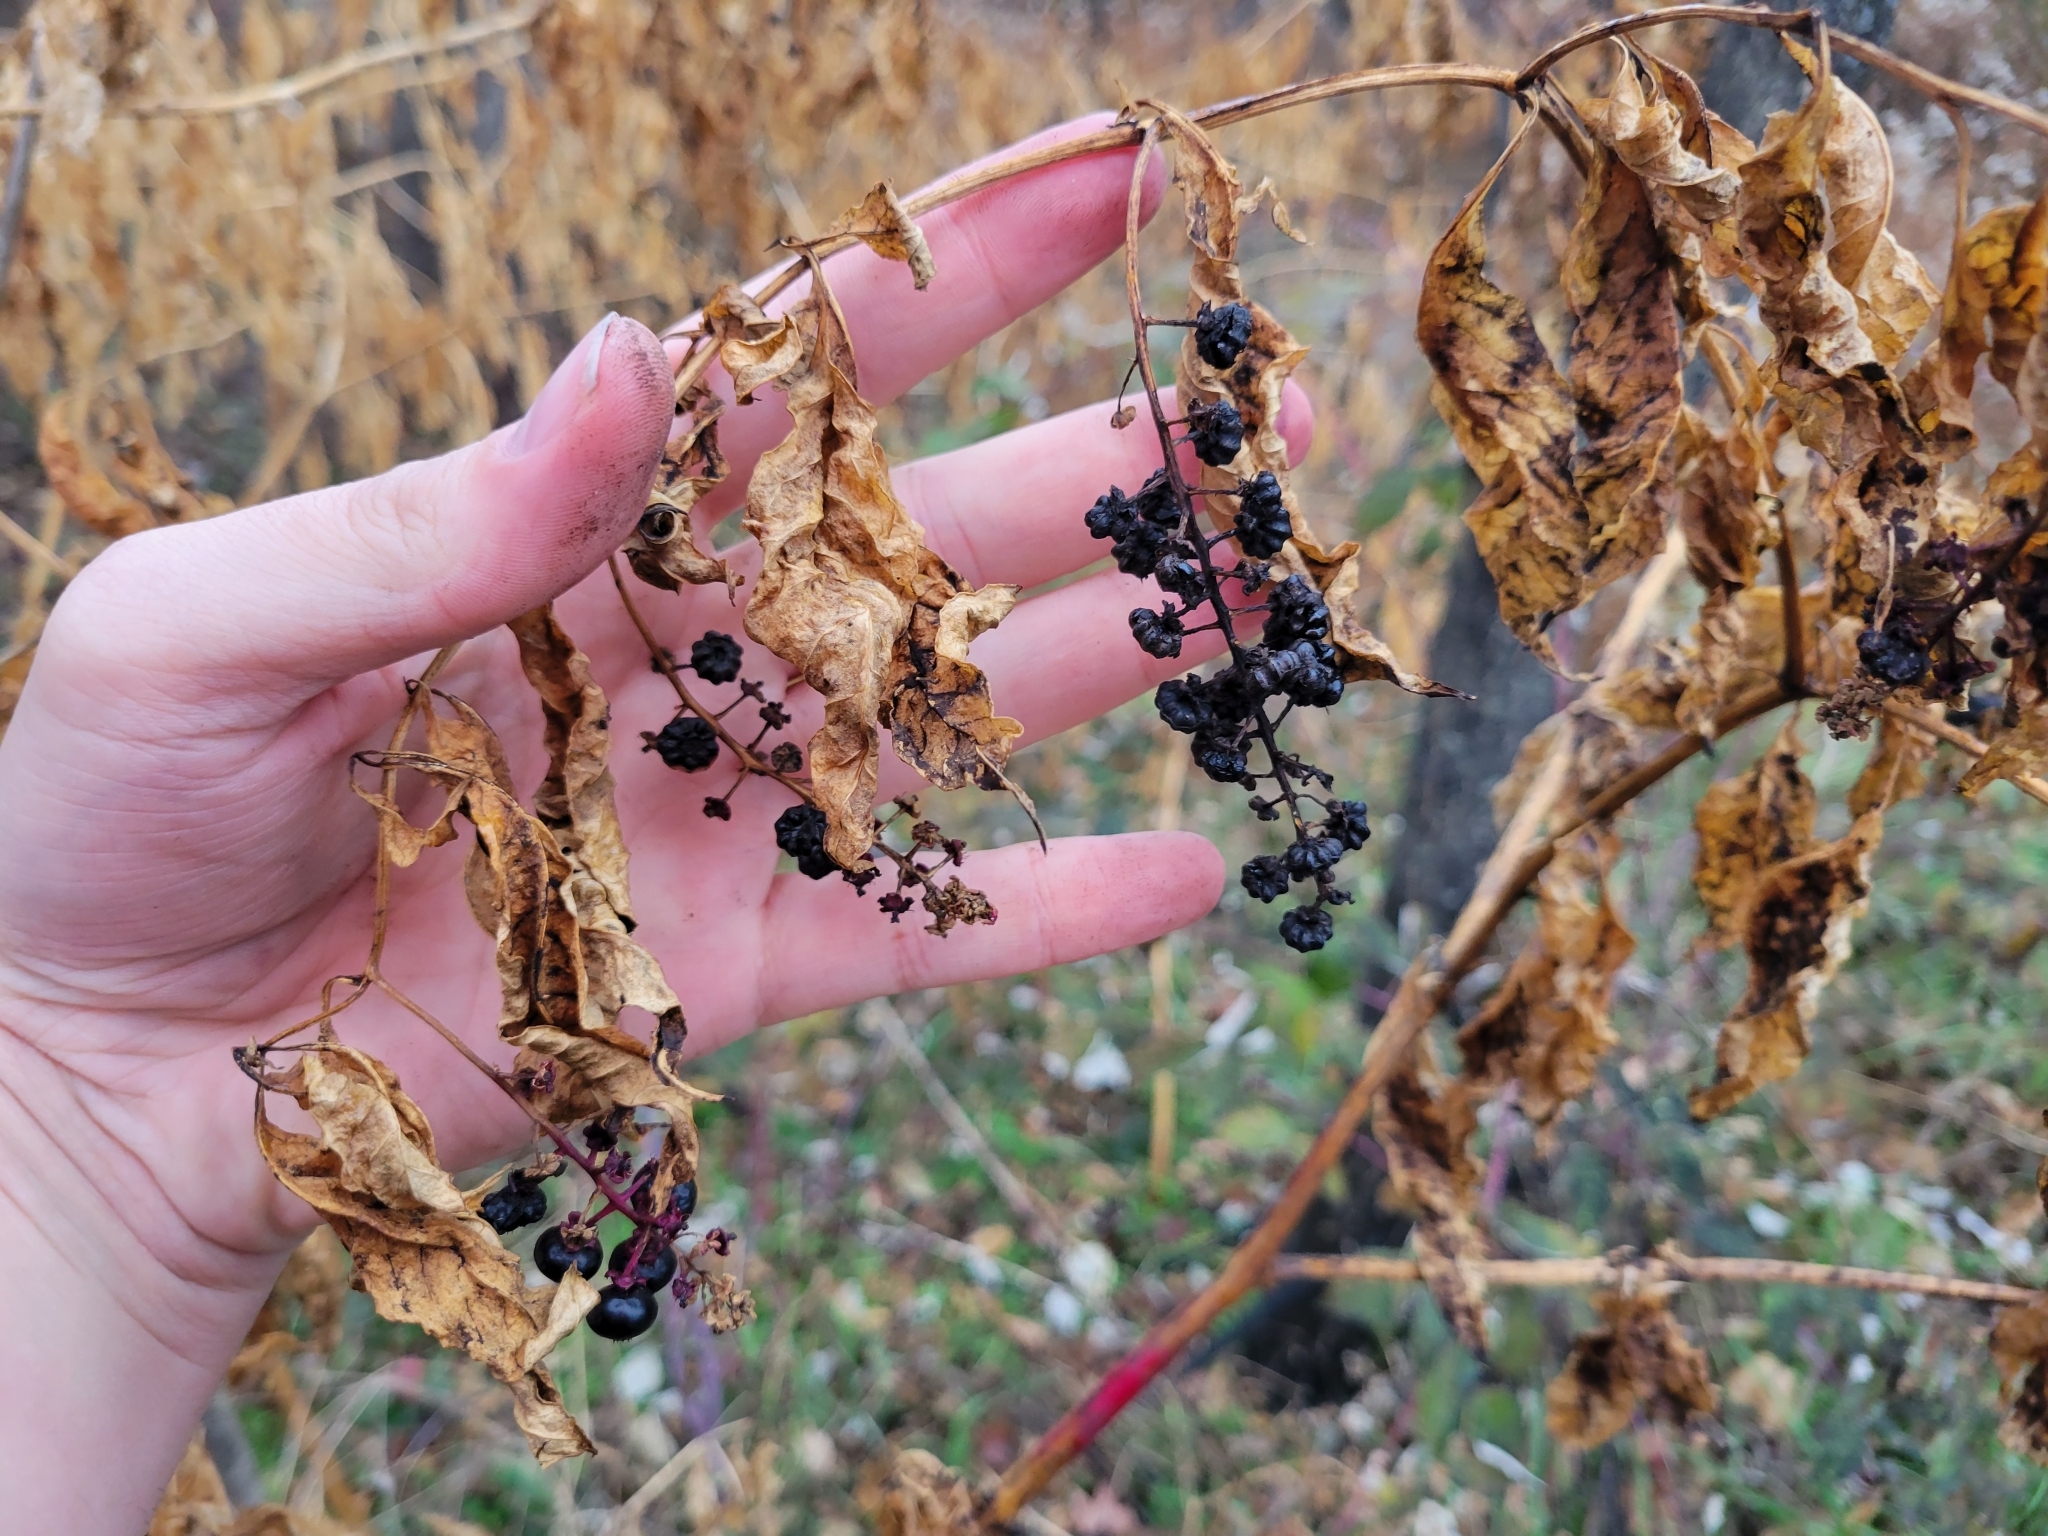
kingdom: Plantae
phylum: Tracheophyta
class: Magnoliopsida
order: Caryophyllales
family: Phytolaccaceae
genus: Phytolacca
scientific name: Phytolacca americana
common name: American pokeweed
